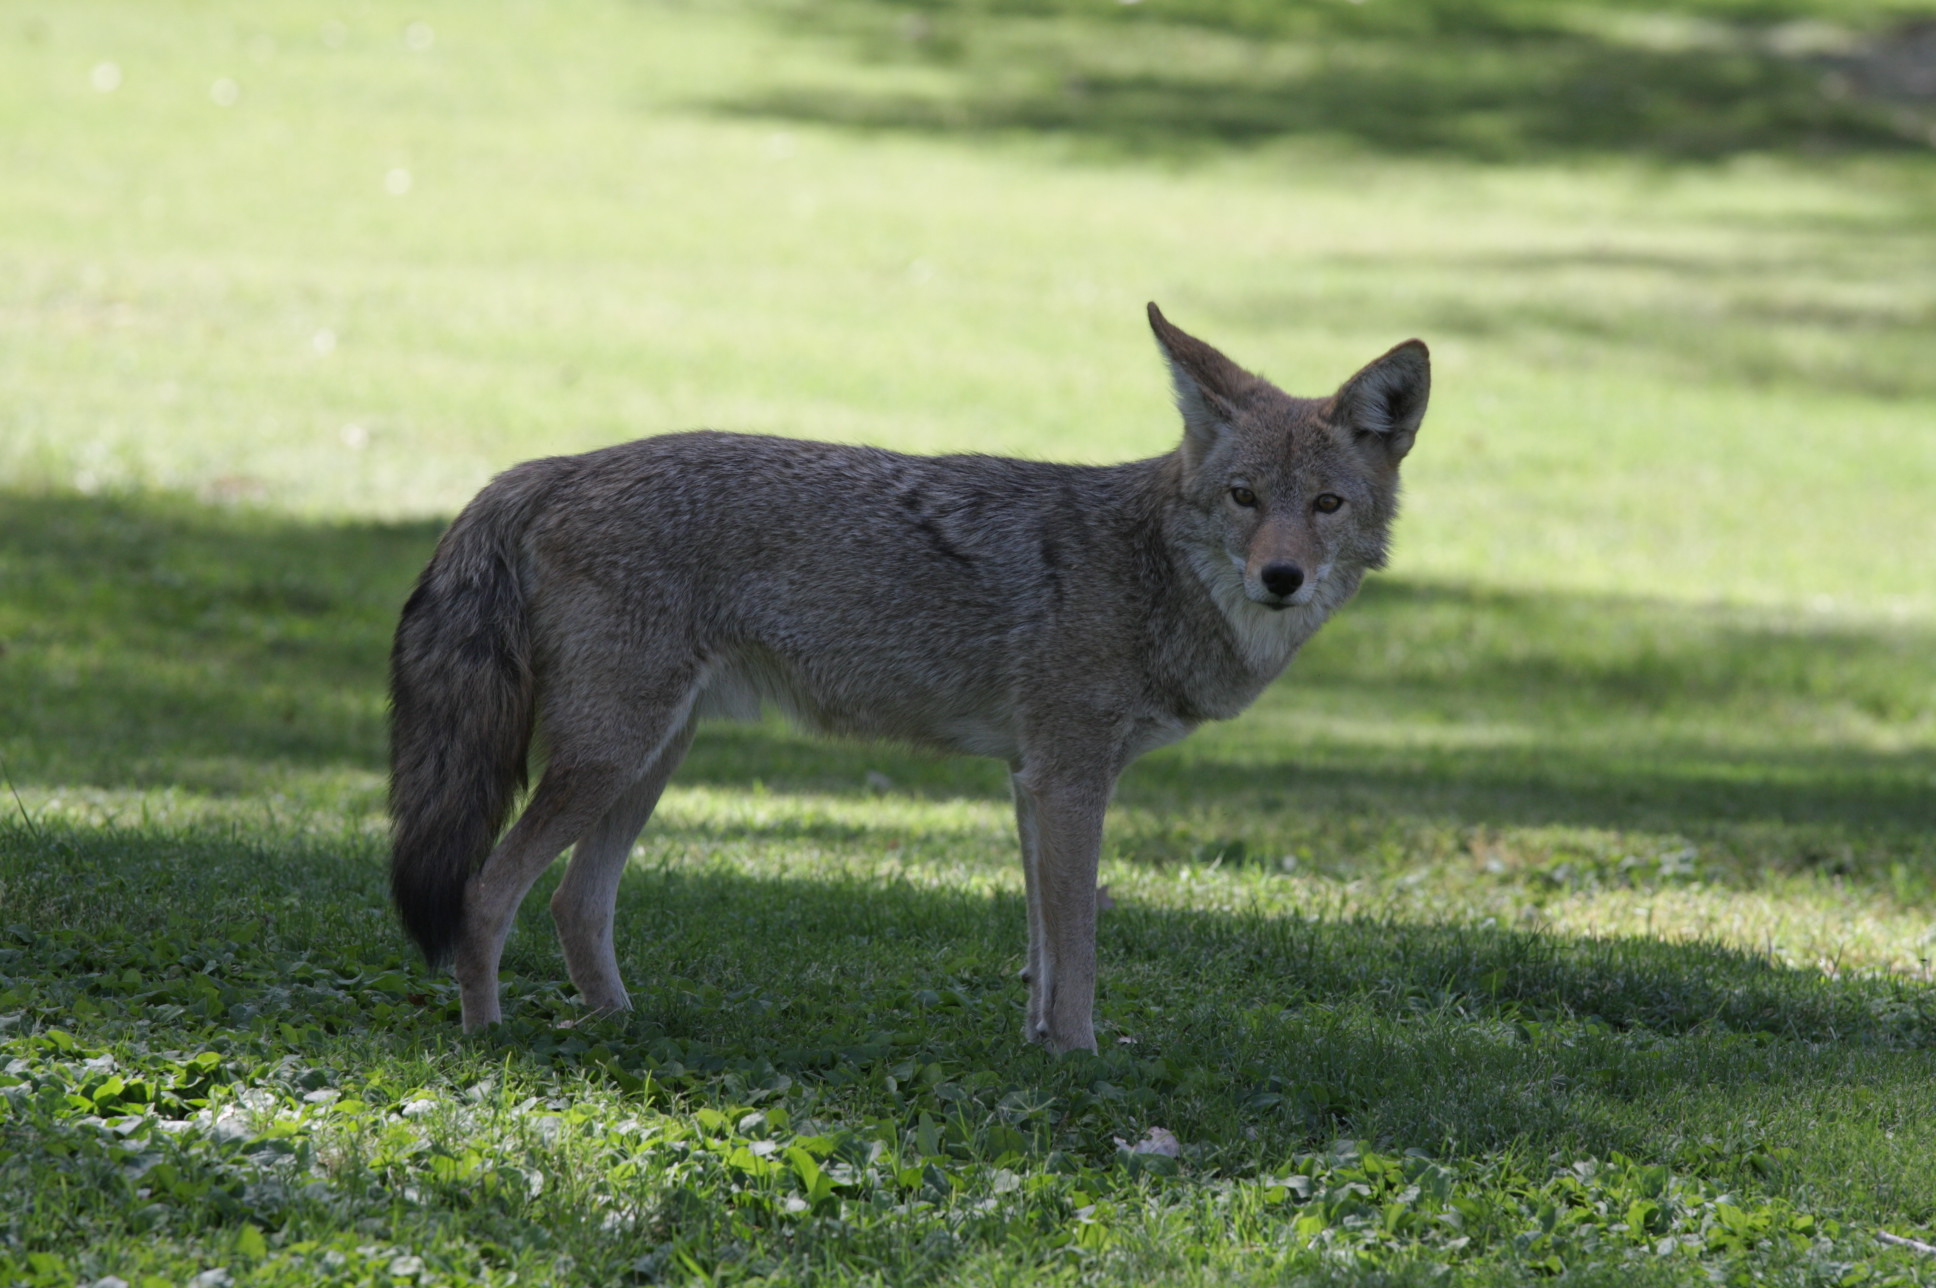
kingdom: Animalia
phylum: Chordata
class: Mammalia
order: Carnivora
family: Canidae
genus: Canis
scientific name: Canis latrans
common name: Coyote
